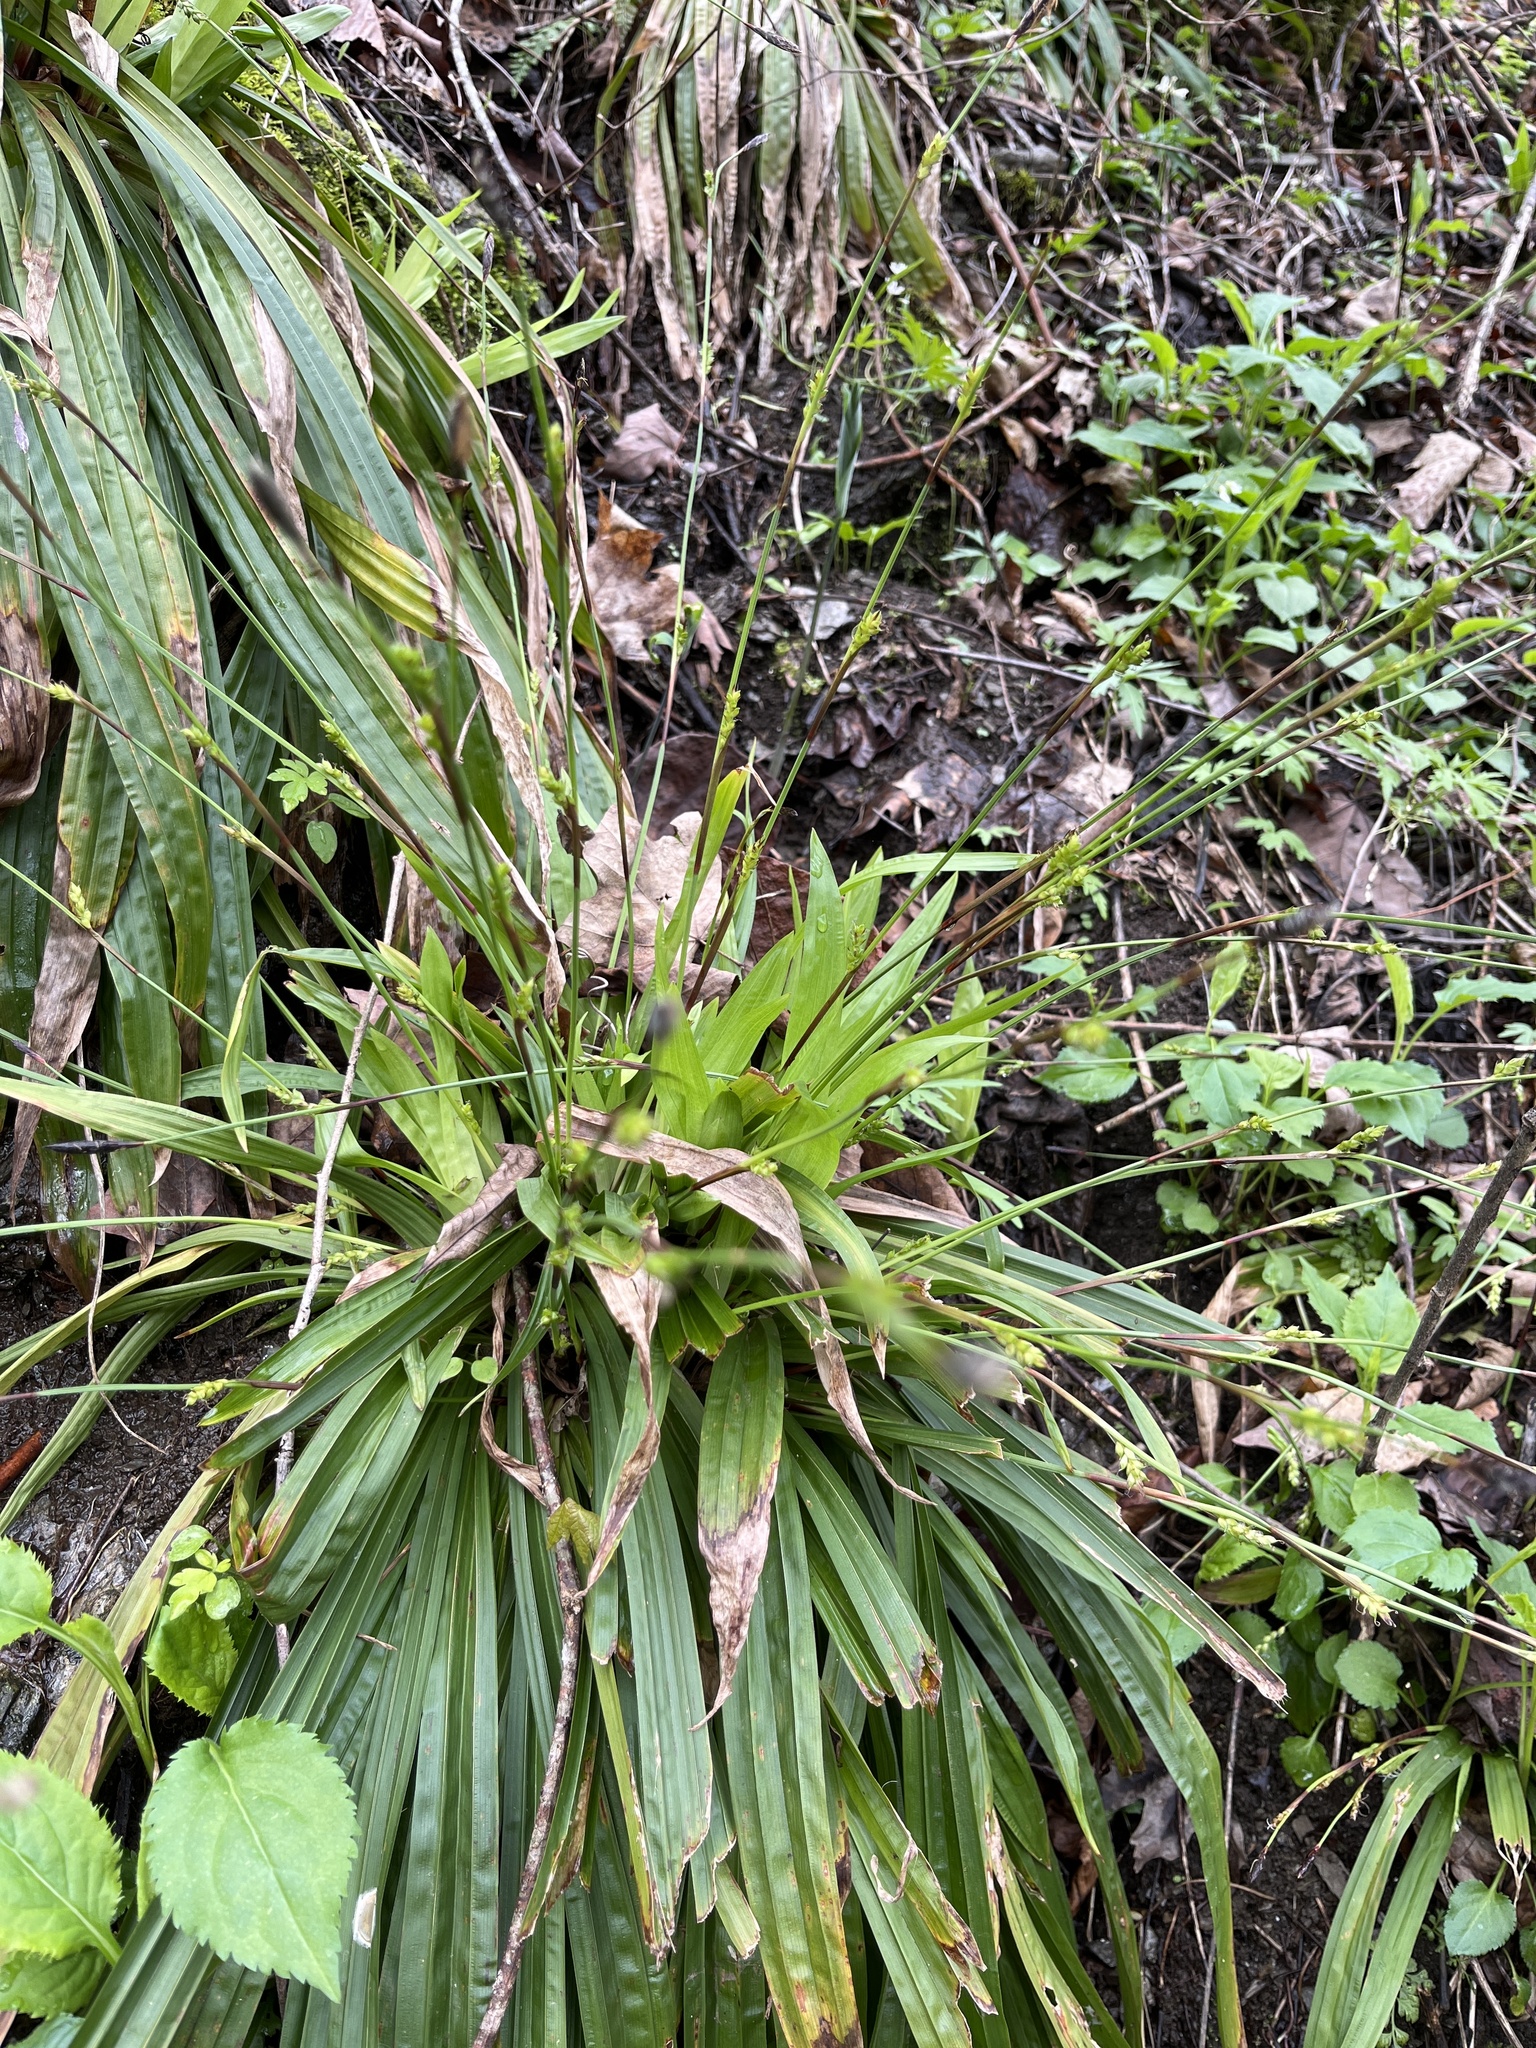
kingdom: Plantae
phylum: Tracheophyta
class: Liliopsida
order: Poales
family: Cyperaceae
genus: Carex
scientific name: Carex plantaginea
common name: Plantain-leaved sedge
